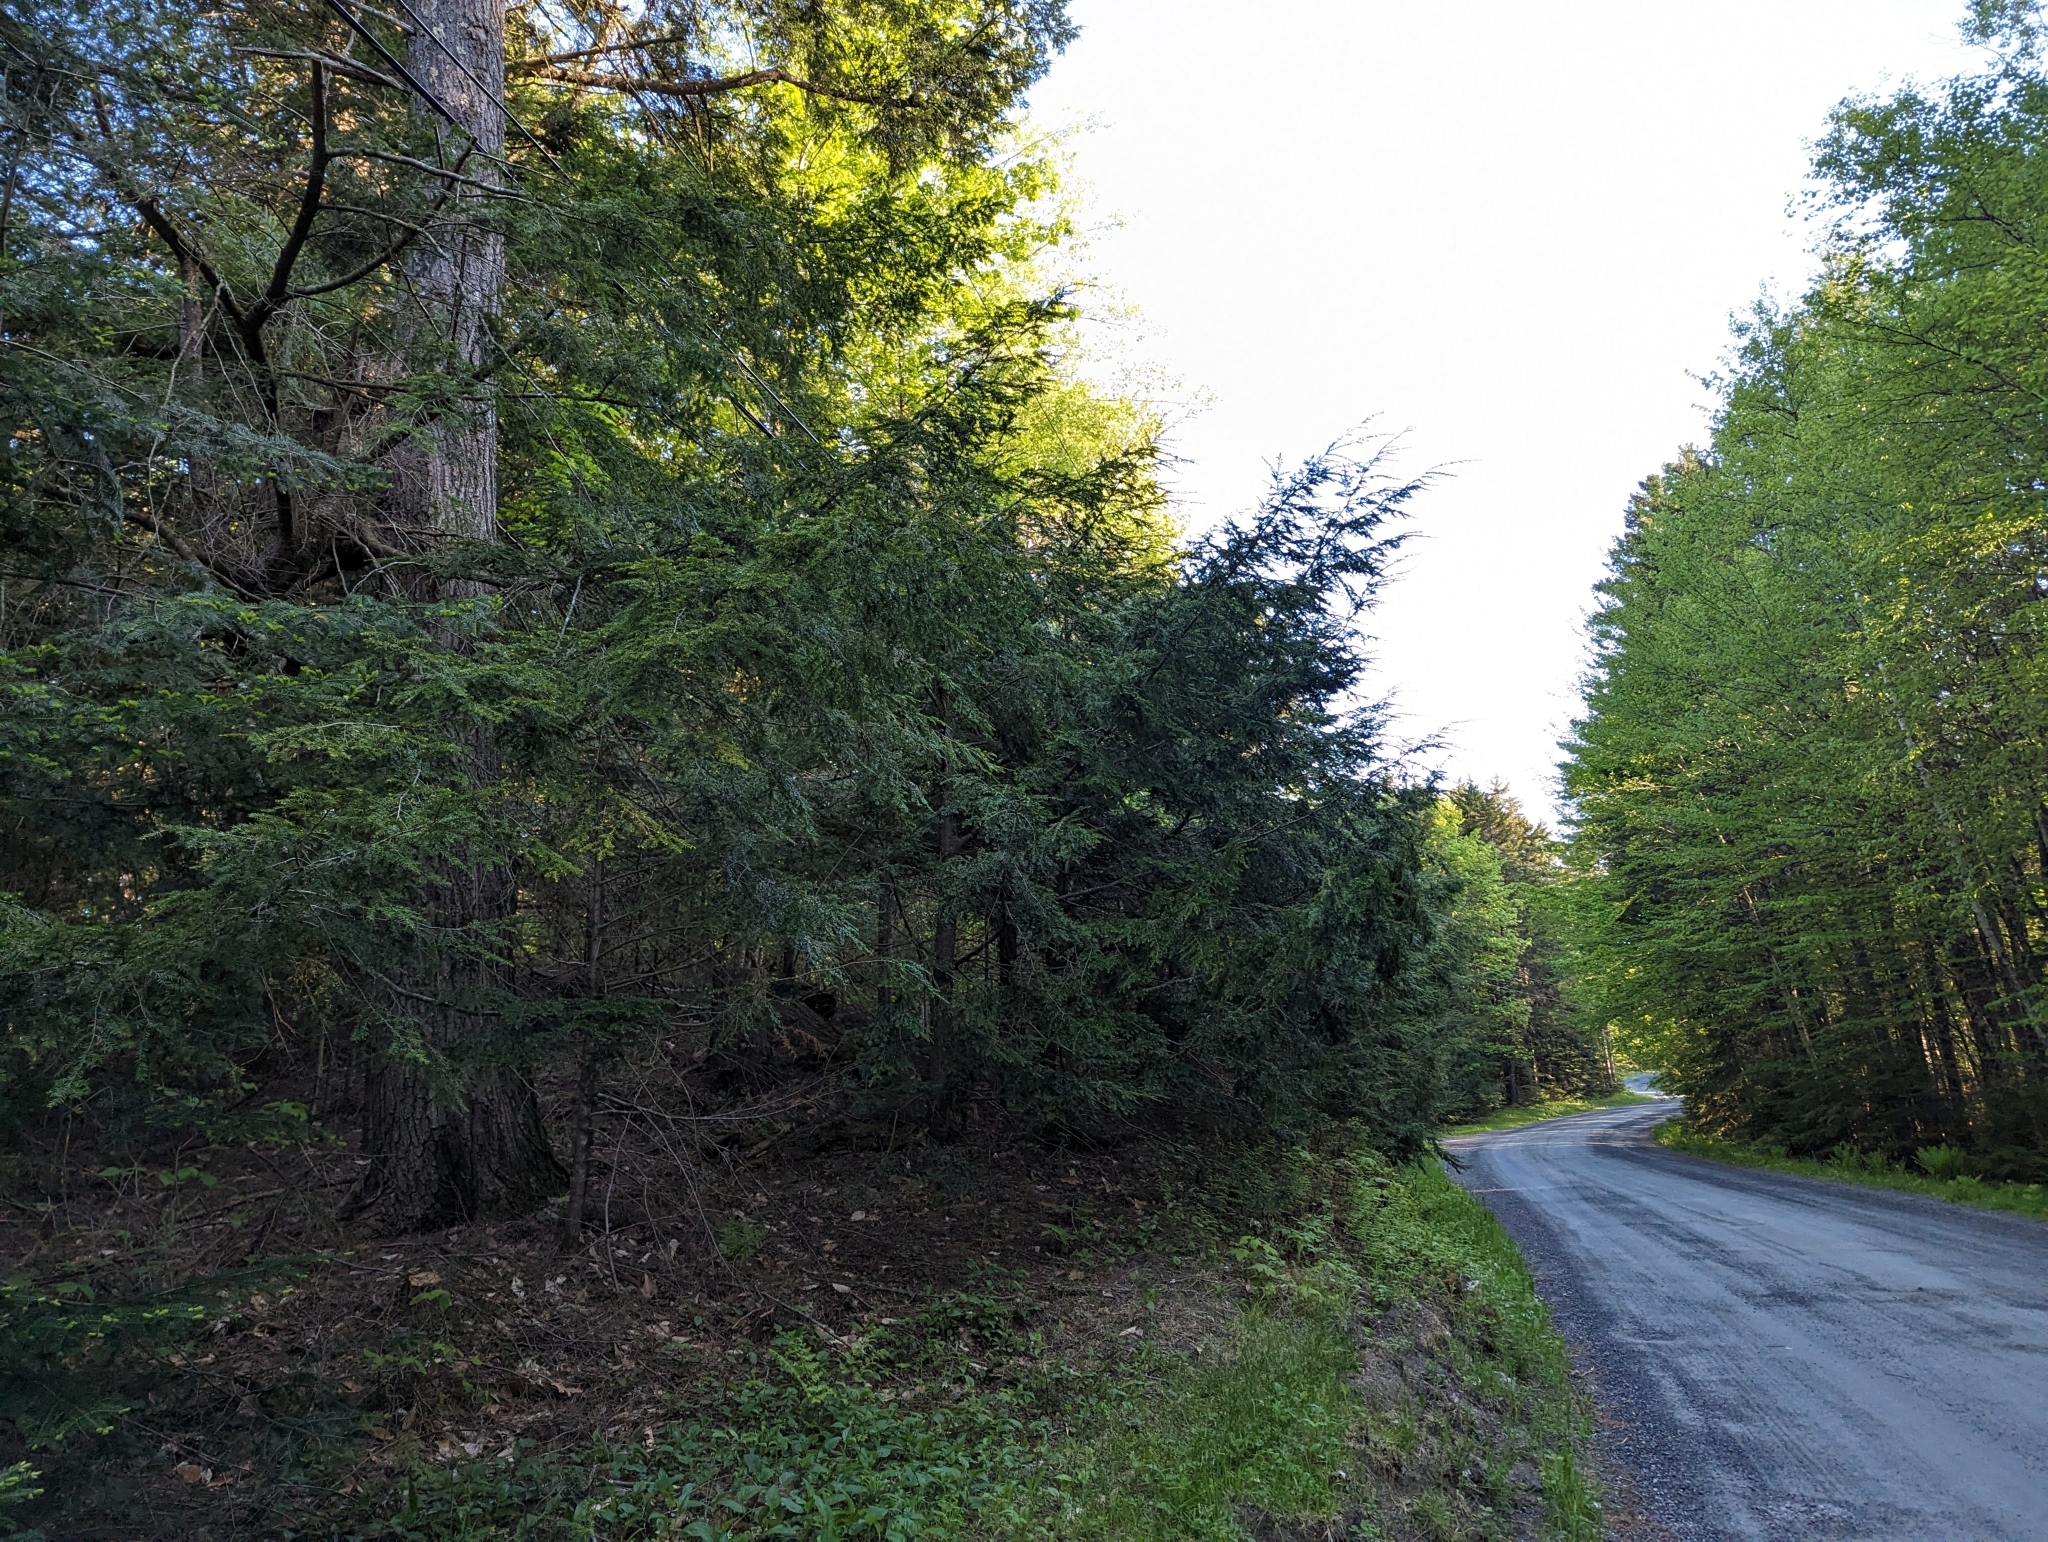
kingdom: Plantae
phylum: Tracheophyta
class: Pinopsida
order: Pinales
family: Pinaceae
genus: Tsuga
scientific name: Tsuga canadensis
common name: Eastern hemlock
